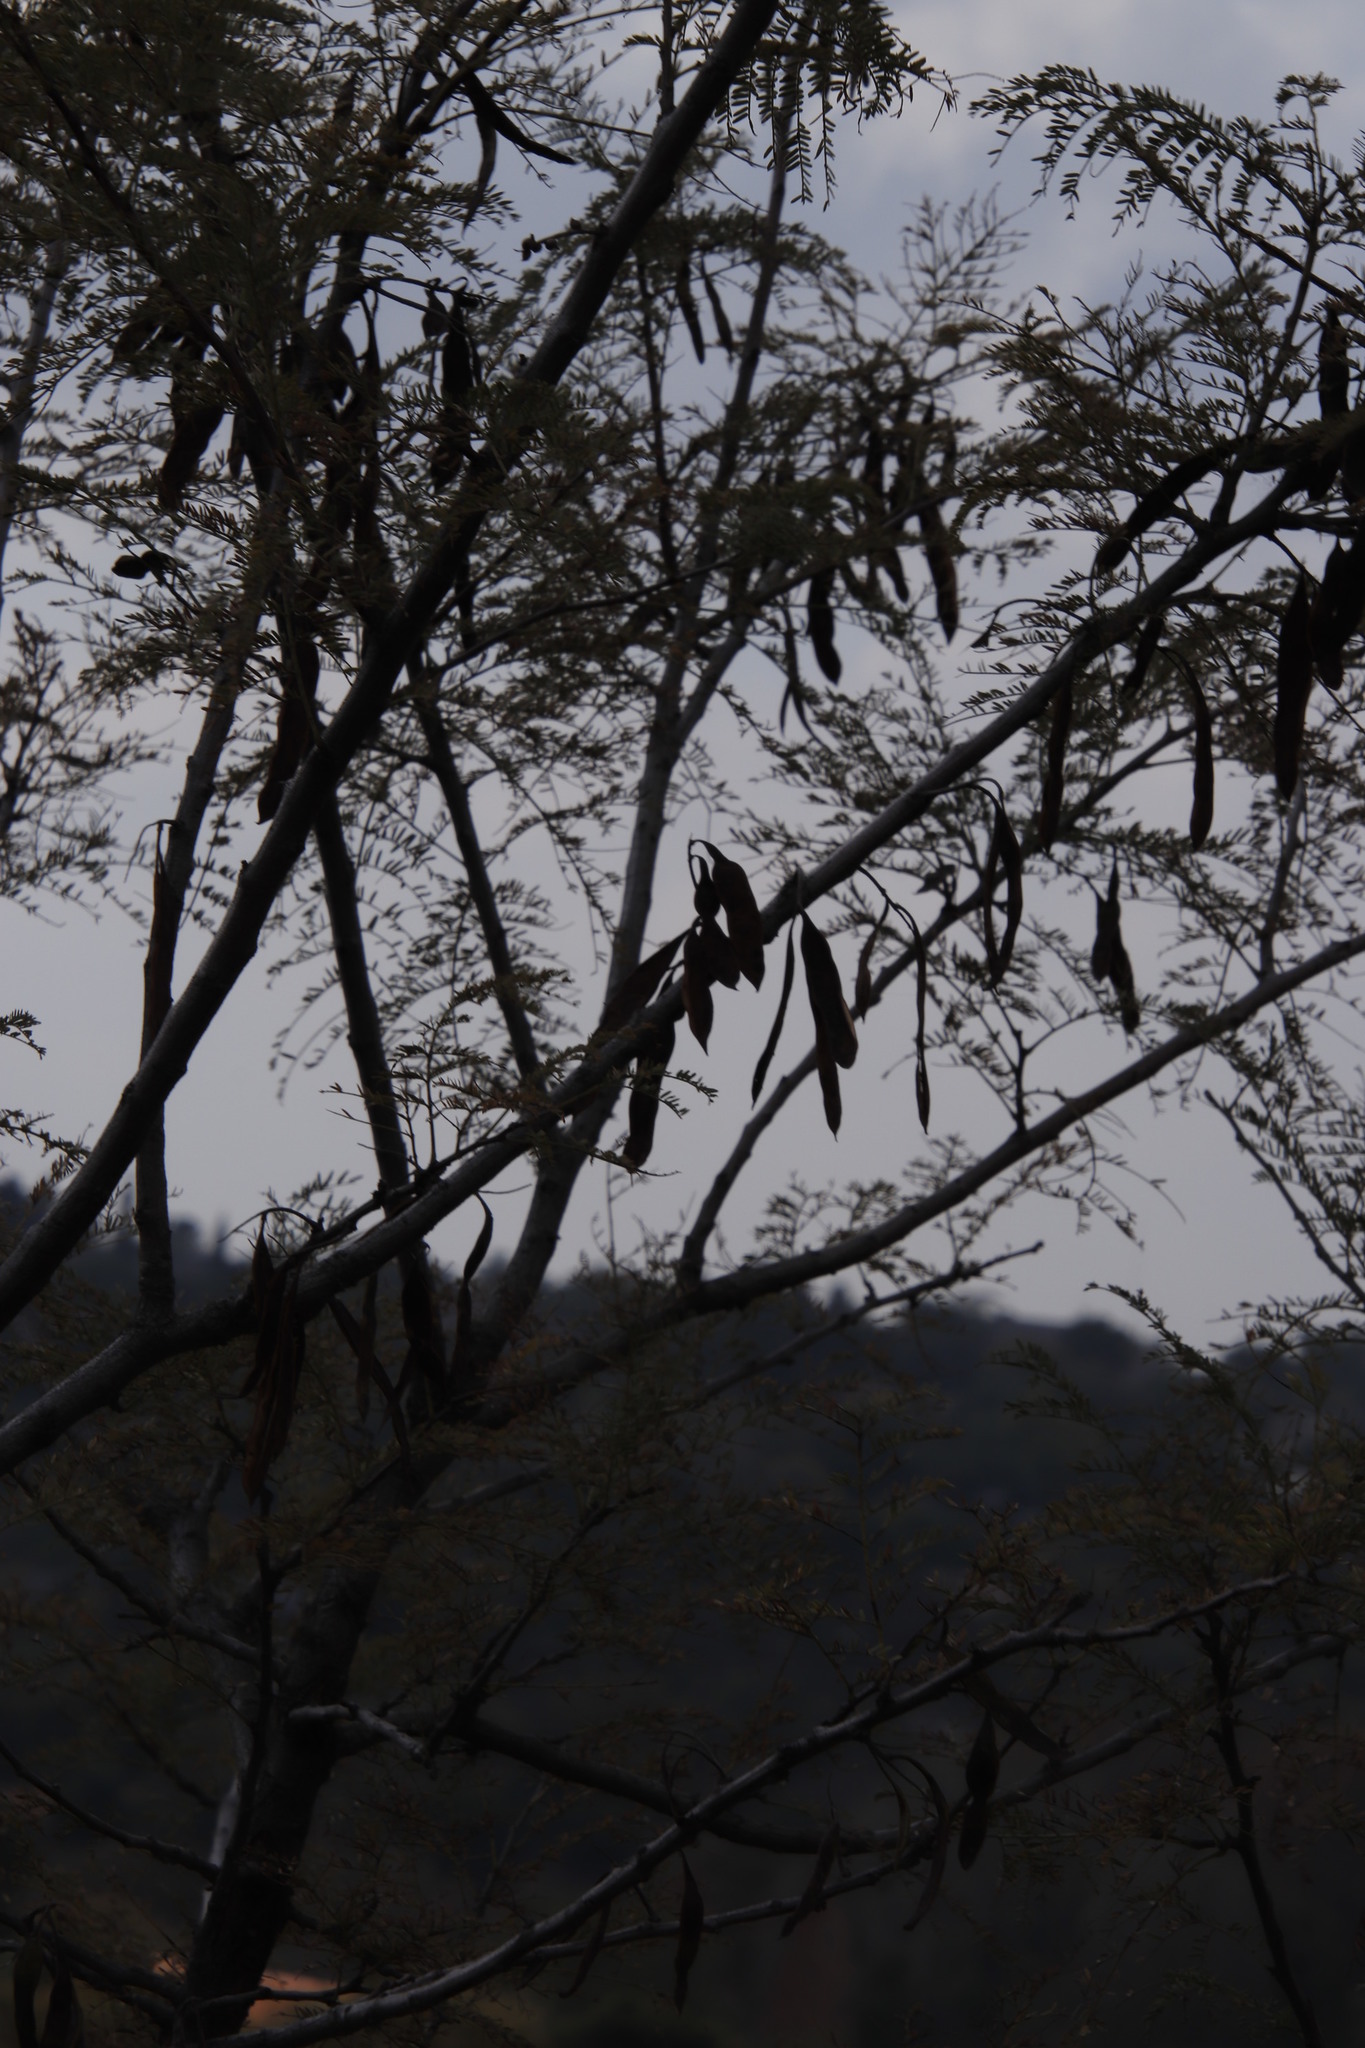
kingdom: Plantae
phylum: Tracheophyta
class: Magnoliopsida
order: Fabales
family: Fabaceae
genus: Senegalia
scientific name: Senegalia caffra
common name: Cat thorn
